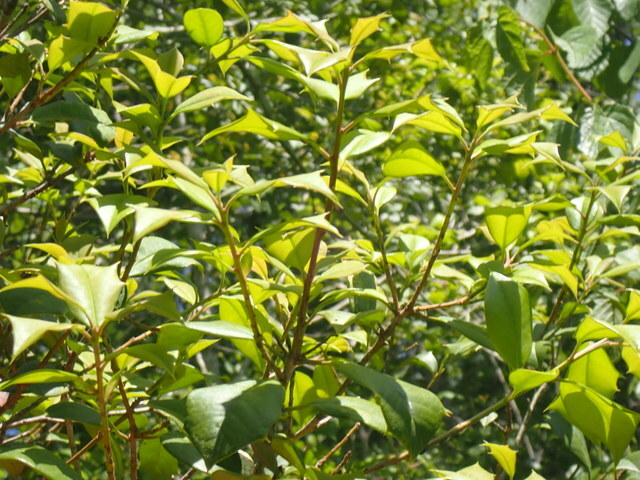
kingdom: Plantae
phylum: Tracheophyta
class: Magnoliopsida
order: Aquifoliales
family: Aquifoliaceae
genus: Ilex
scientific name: Ilex opaca
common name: American holly
